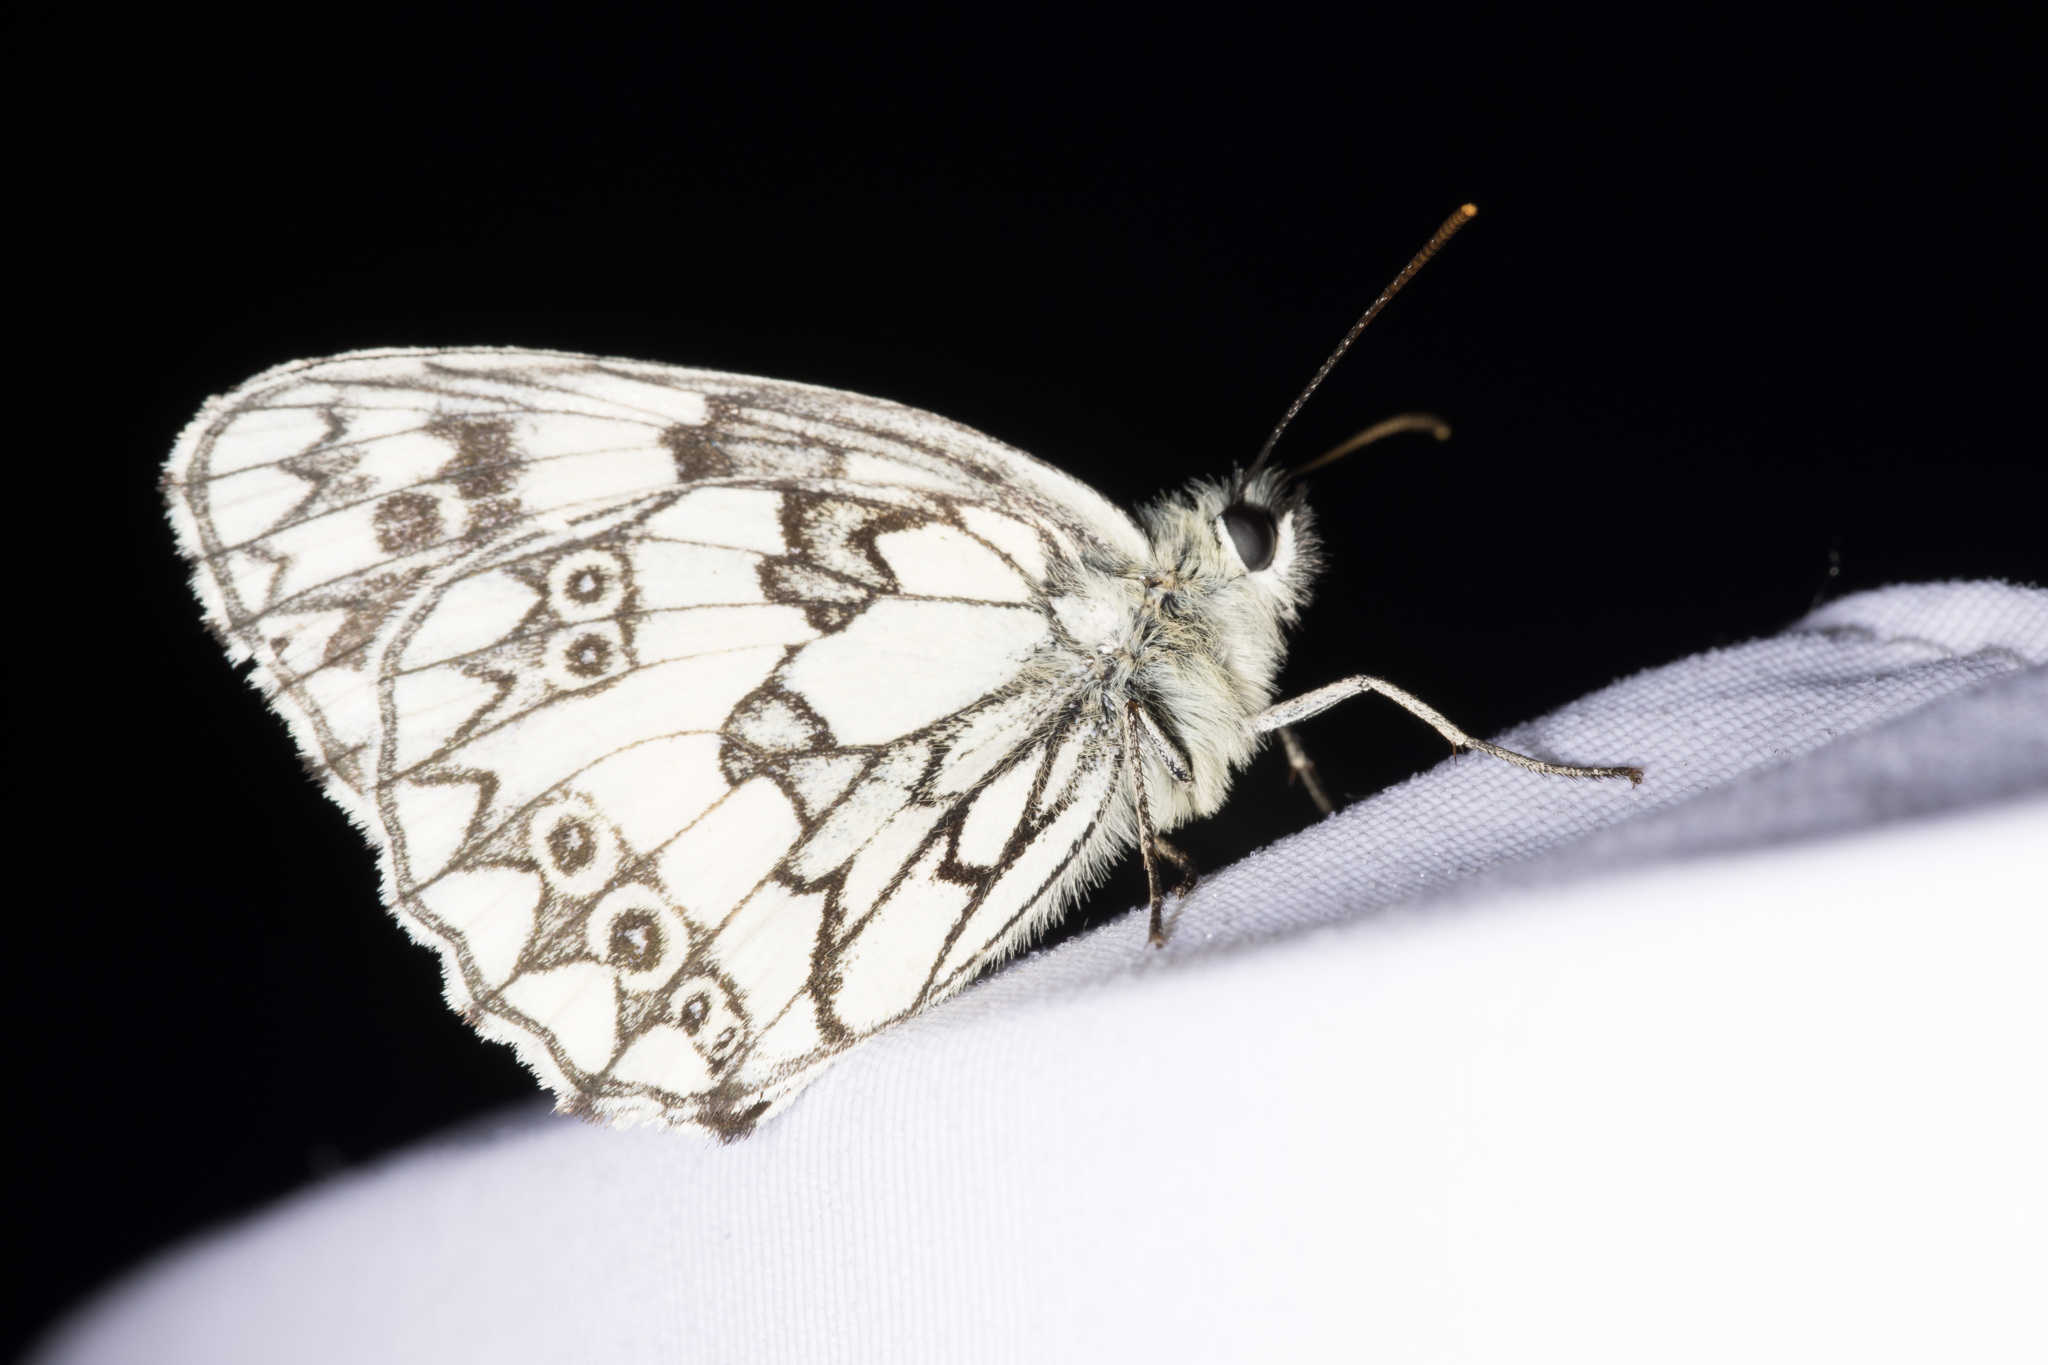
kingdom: Animalia
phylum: Arthropoda
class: Insecta
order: Lepidoptera
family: Nymphalidae
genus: Melanargia
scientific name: Melanargia galathea
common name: Marbled white
